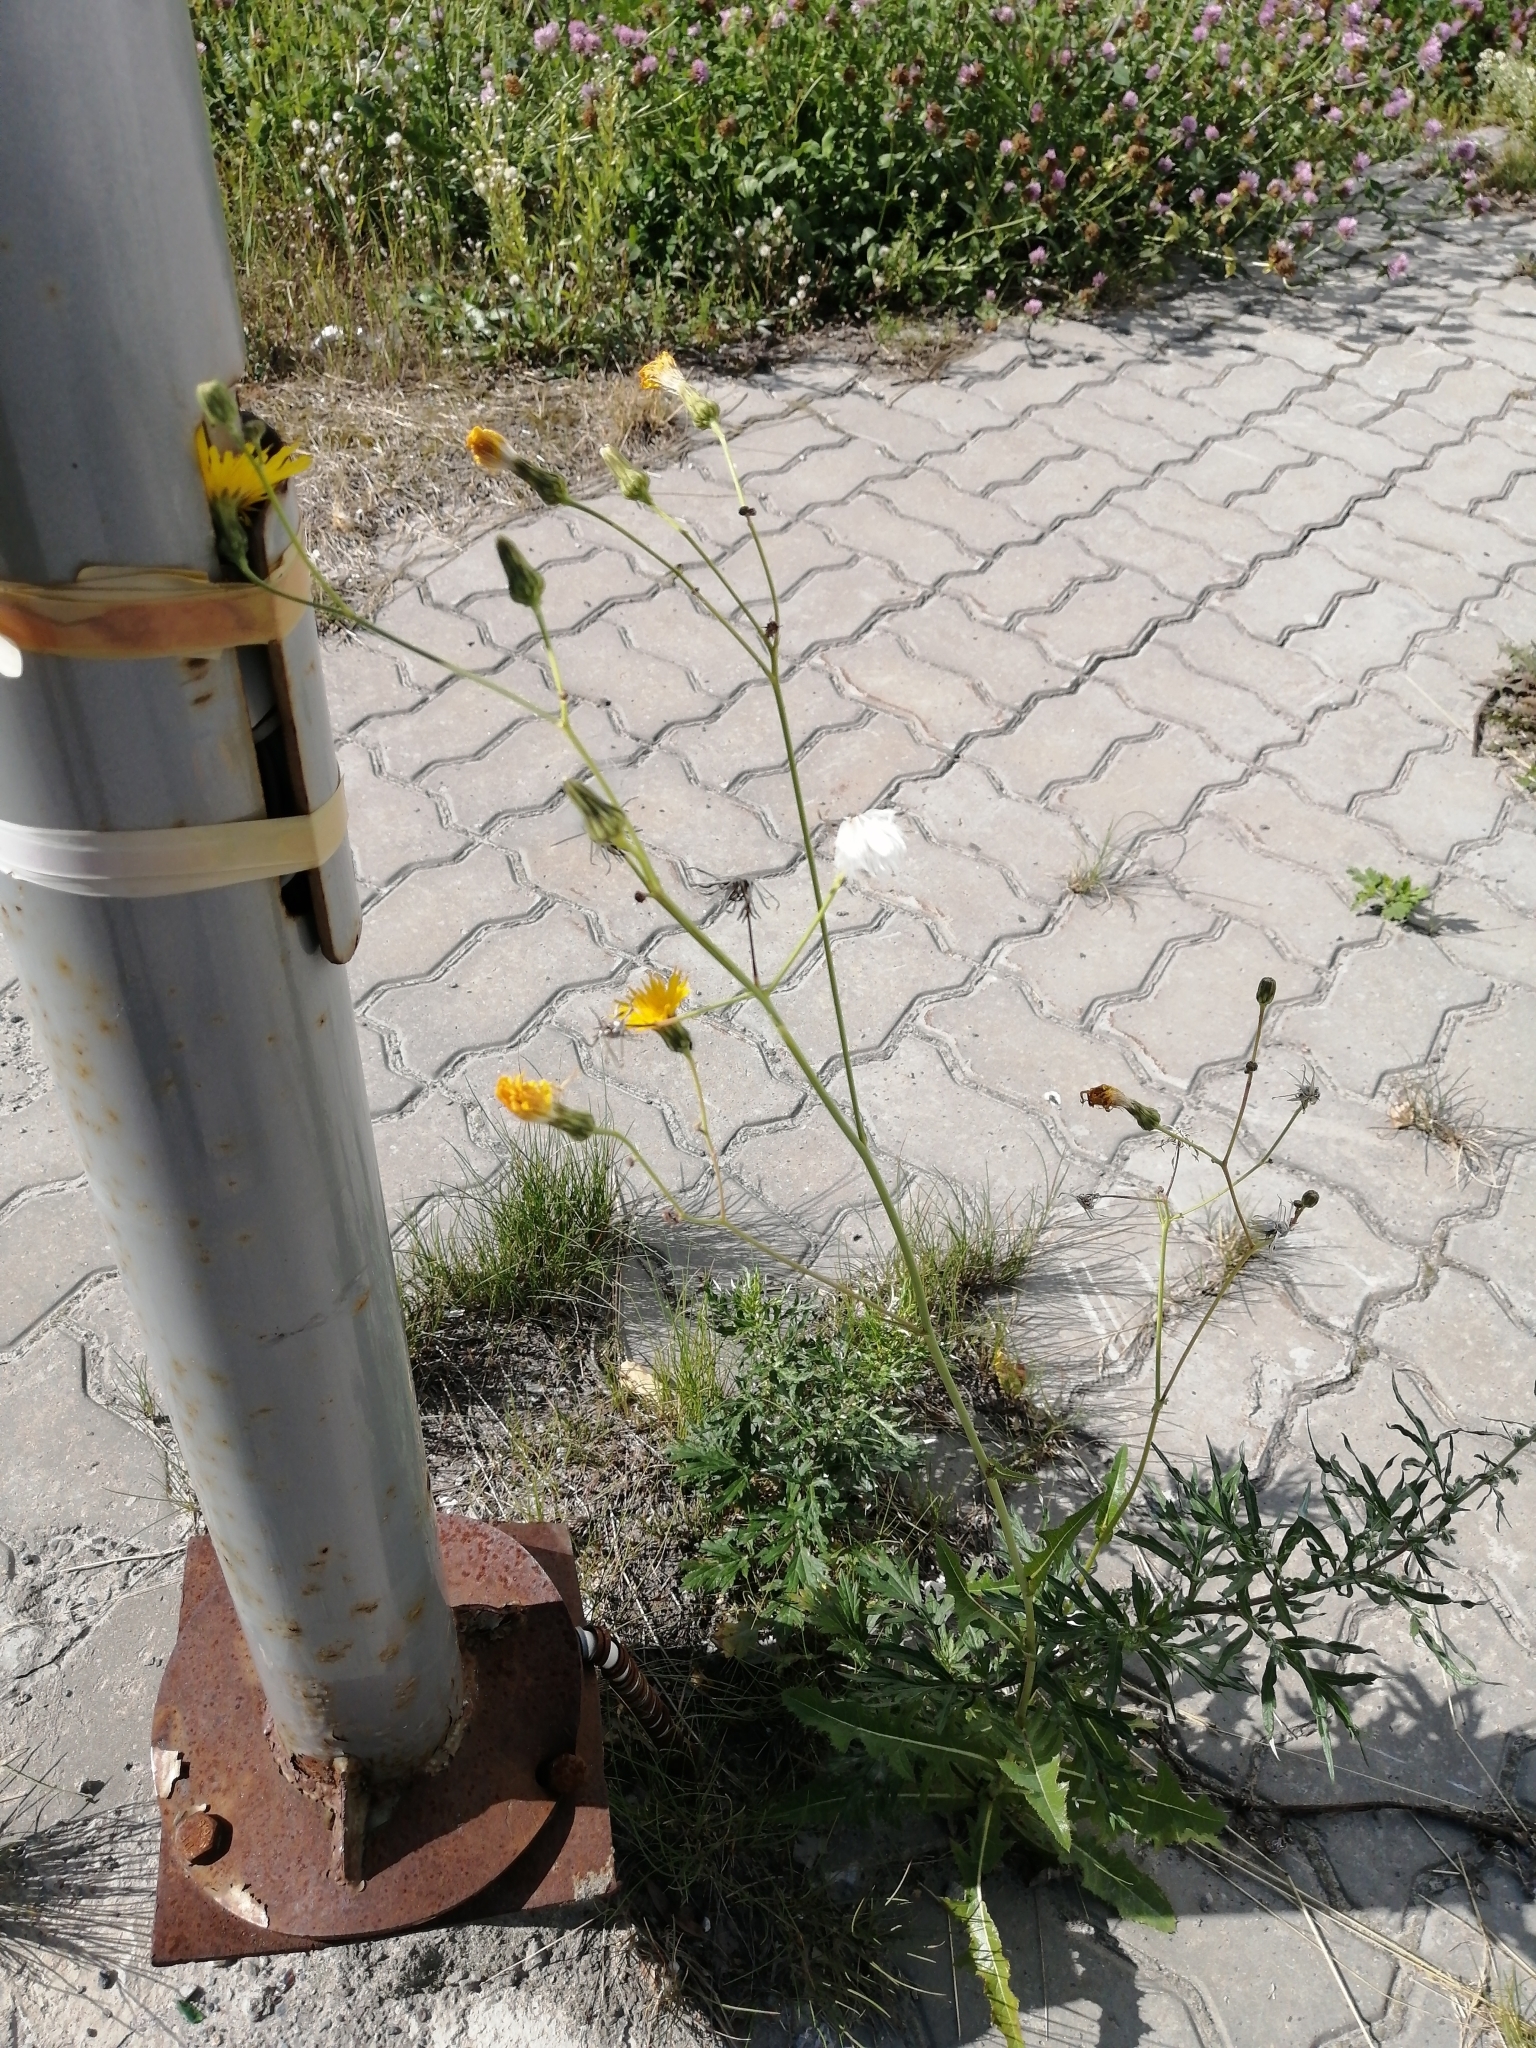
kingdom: Plantae
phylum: Tracheophyta
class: Magnoliopsida
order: Asterales
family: Asteraceae
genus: Sonchus
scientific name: Sonchus arvensis
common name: Perennial sow-thistle
